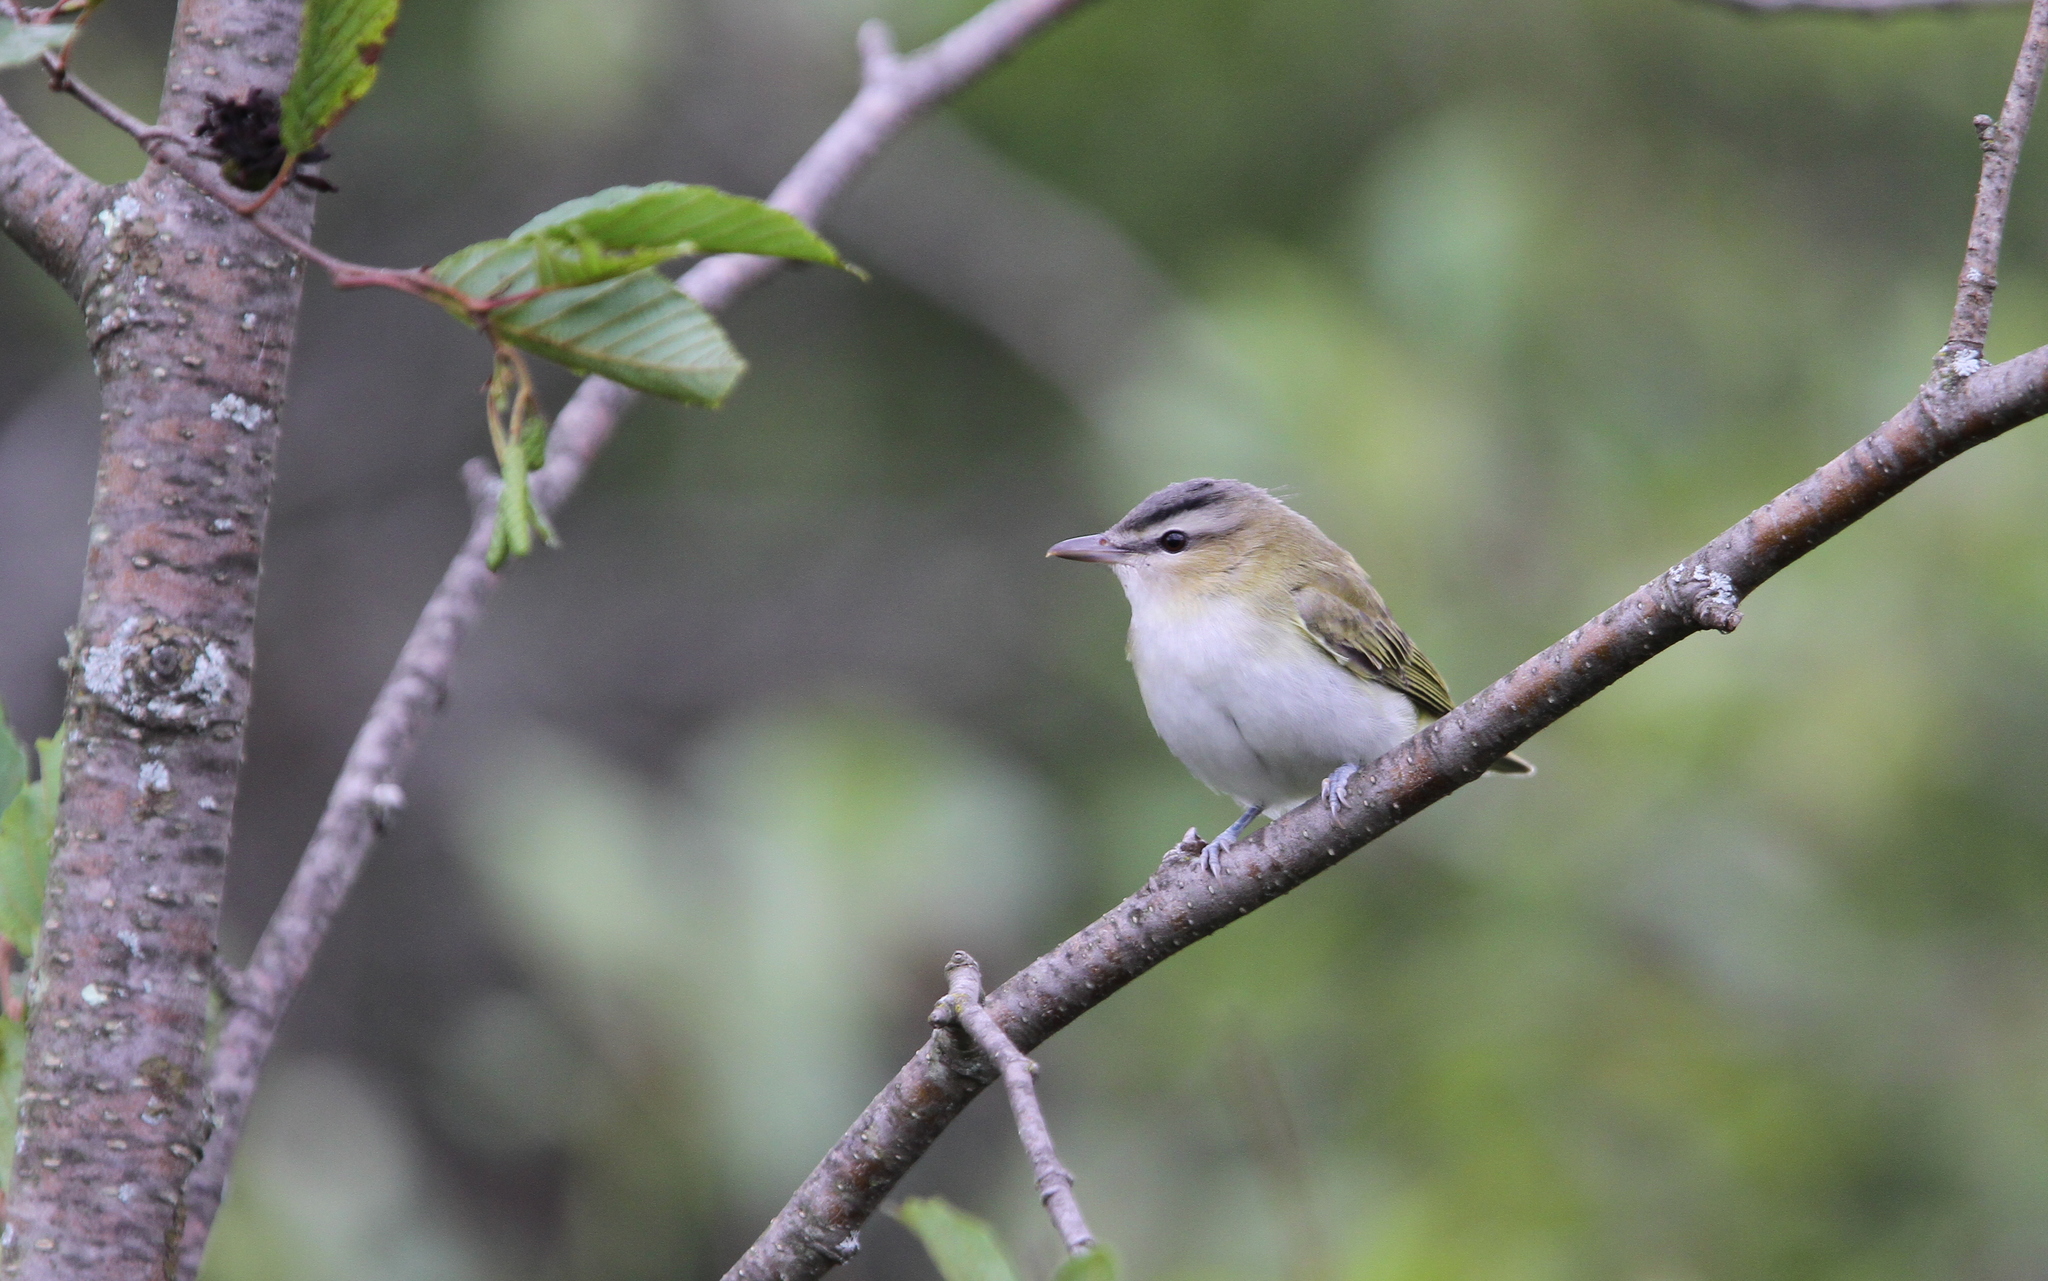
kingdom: Animalia
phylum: Chordata
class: Aves
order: Passeriformes
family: Vireonidae
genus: Vireo
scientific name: Vireo olivaceus
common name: Red-eyed vireo
